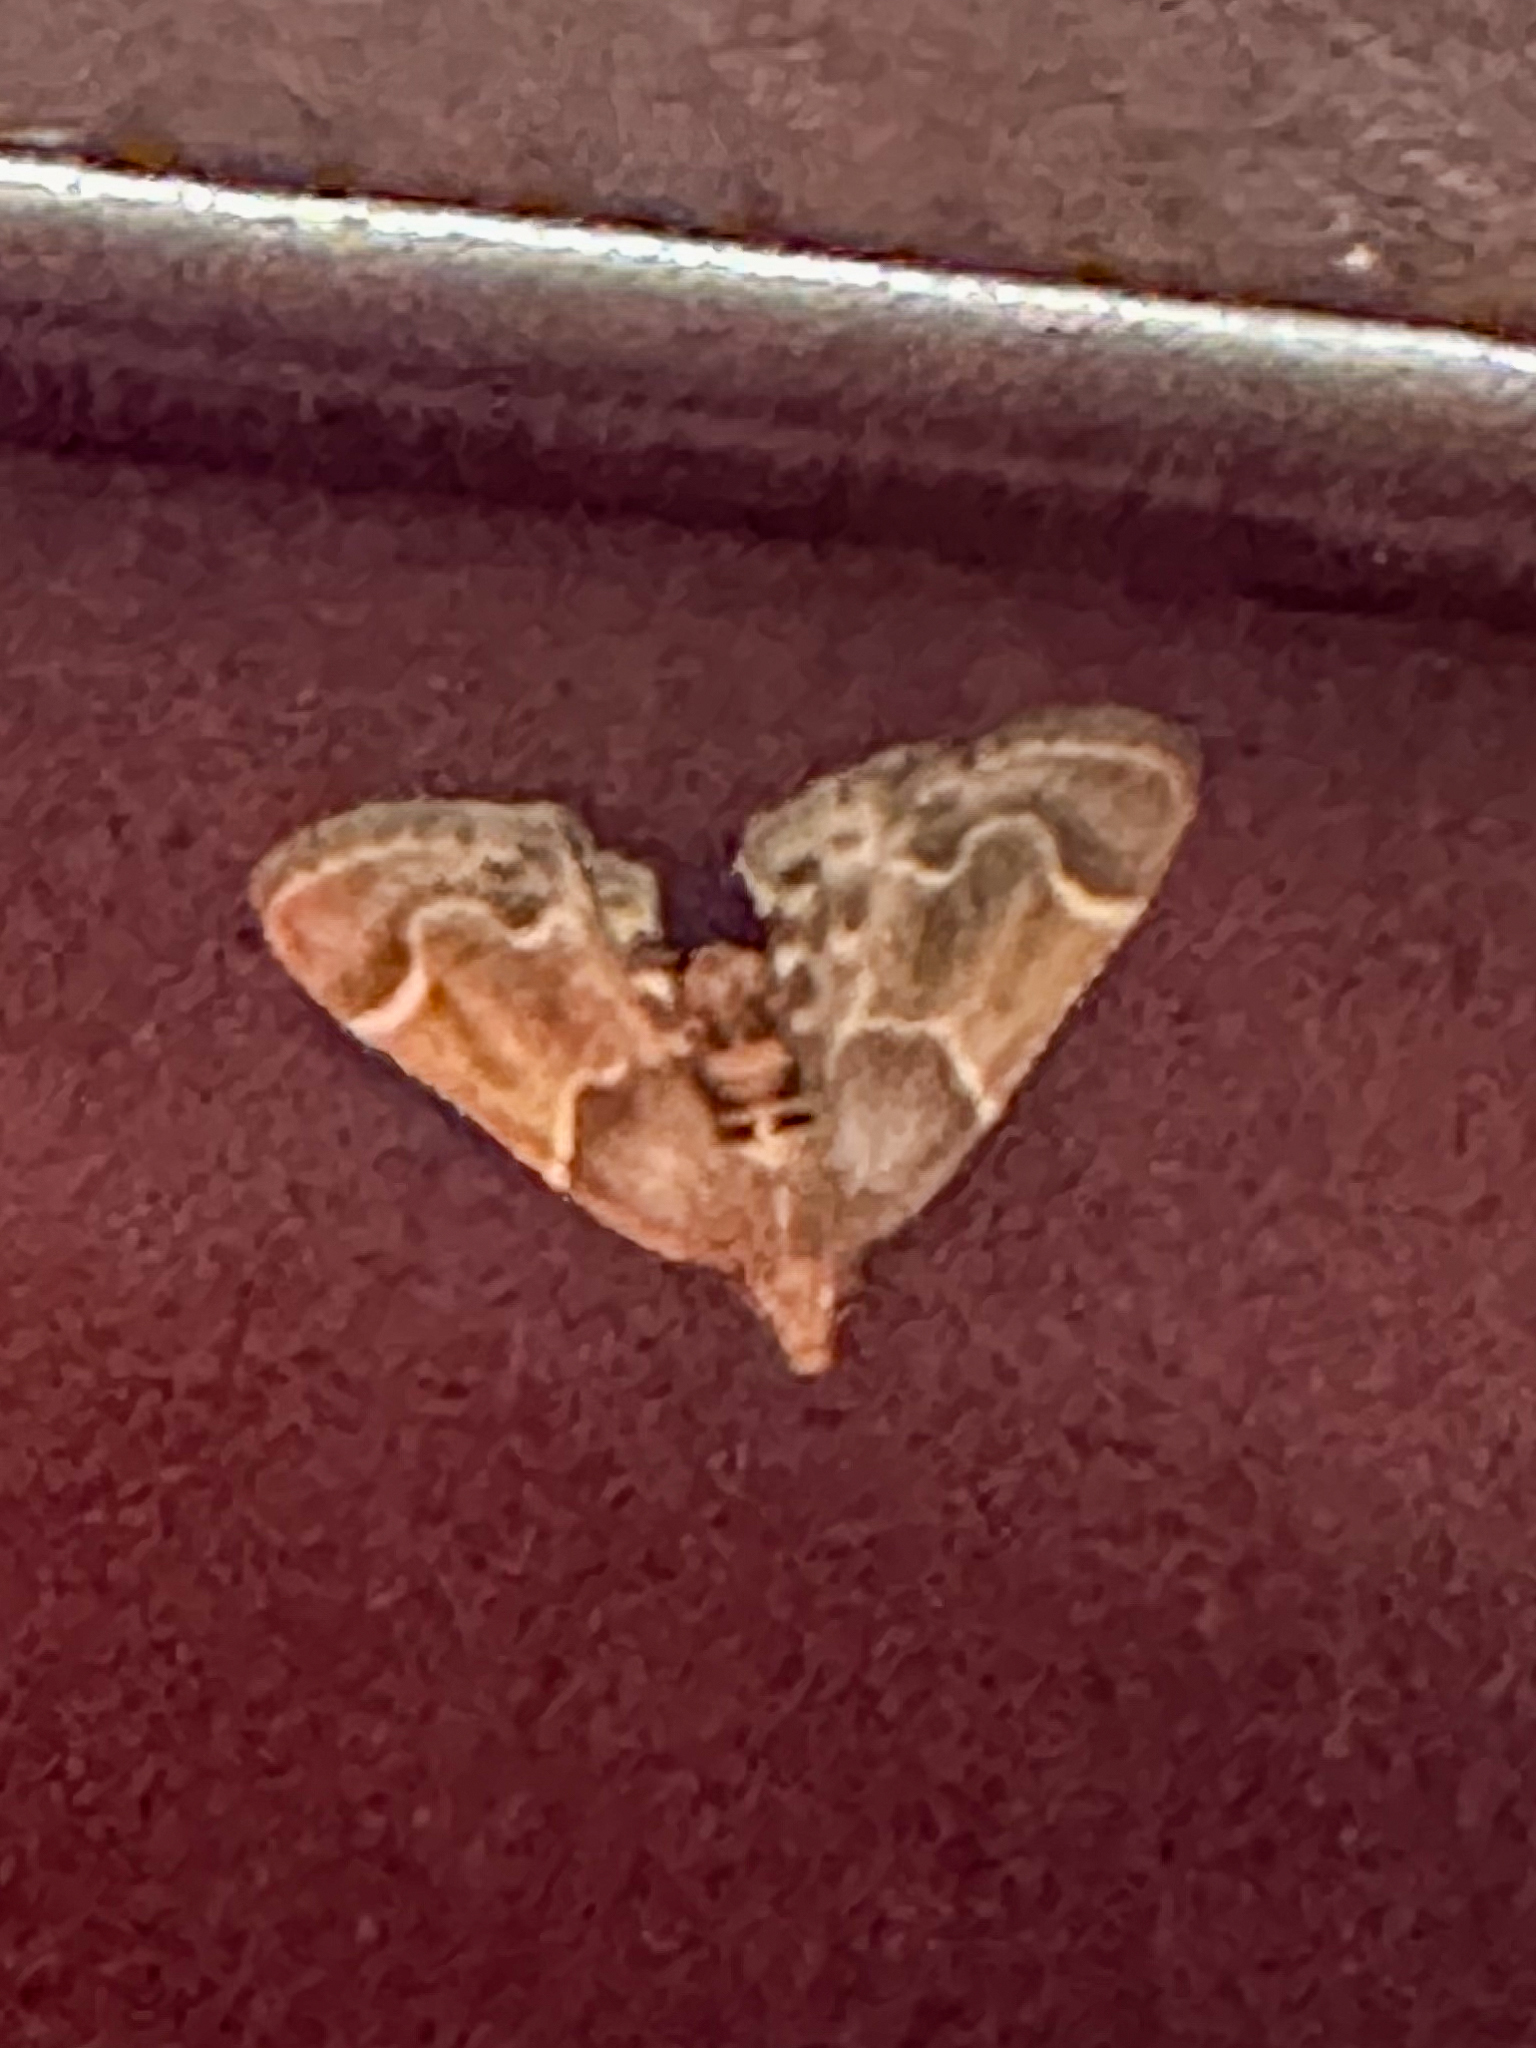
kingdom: Animalia
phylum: Arthropoda
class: Insecta
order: Lepidoptera
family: Pyralidae
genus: Pyralis
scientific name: Pyralis farinalis
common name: Meal moth
